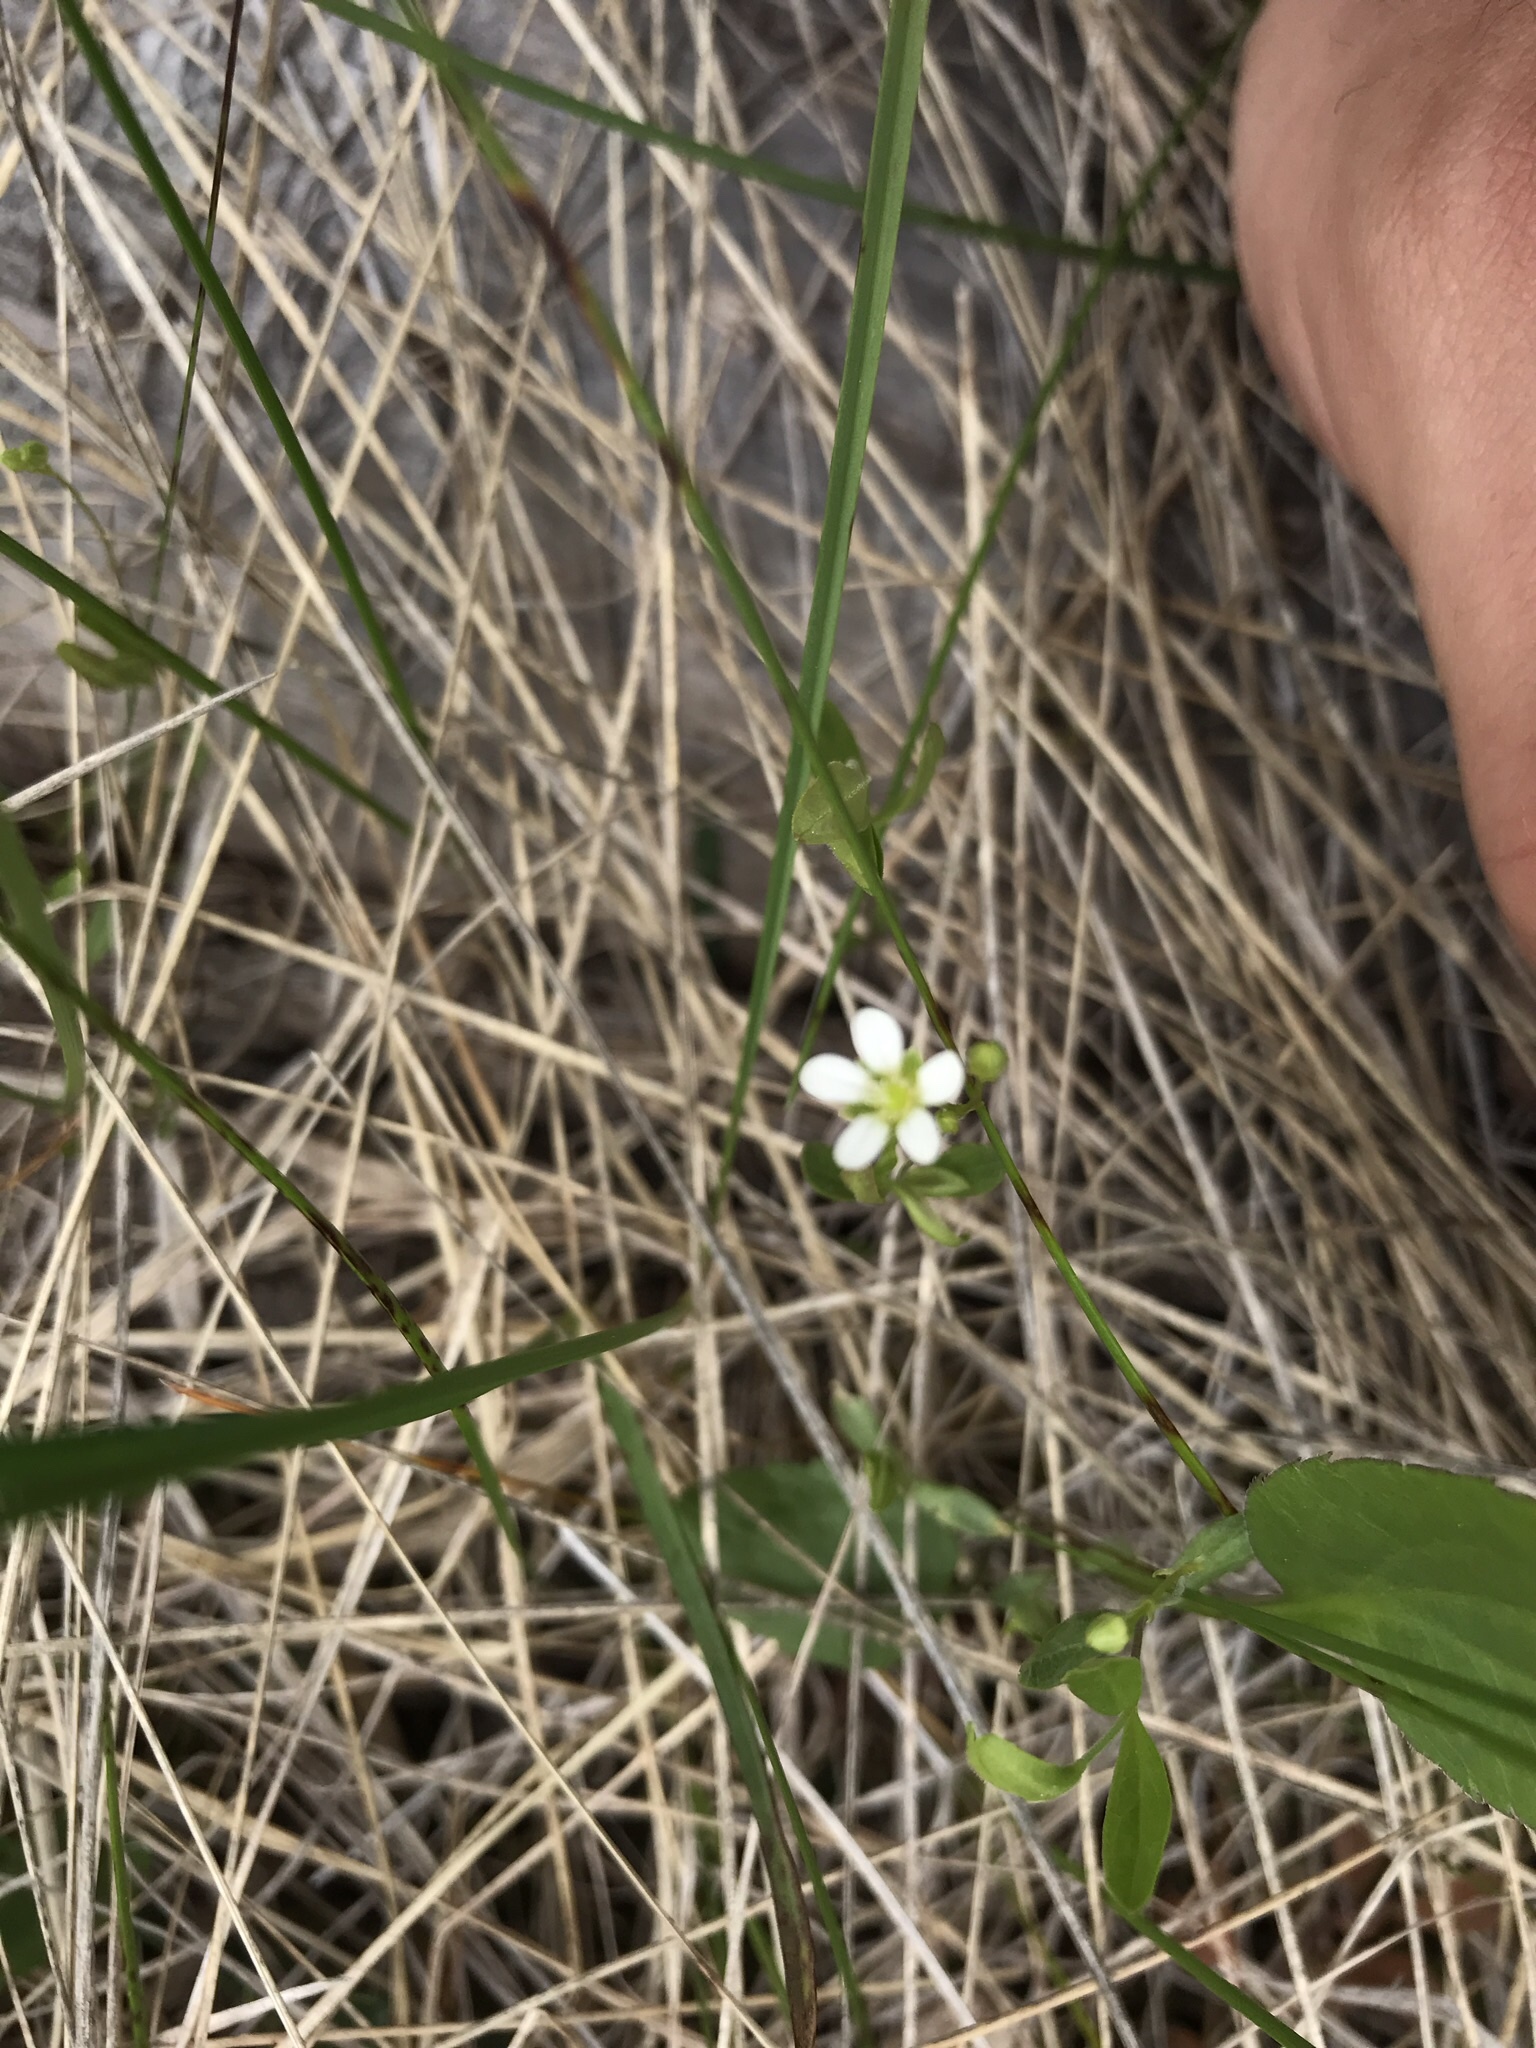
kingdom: Plantae
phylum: Tracheophyta
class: Magnoliopsida
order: Caryophyllales
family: Caryophyllaceae
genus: Moehringia
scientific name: Moehringia lateriflora
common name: Blunt-leaved sandwort
